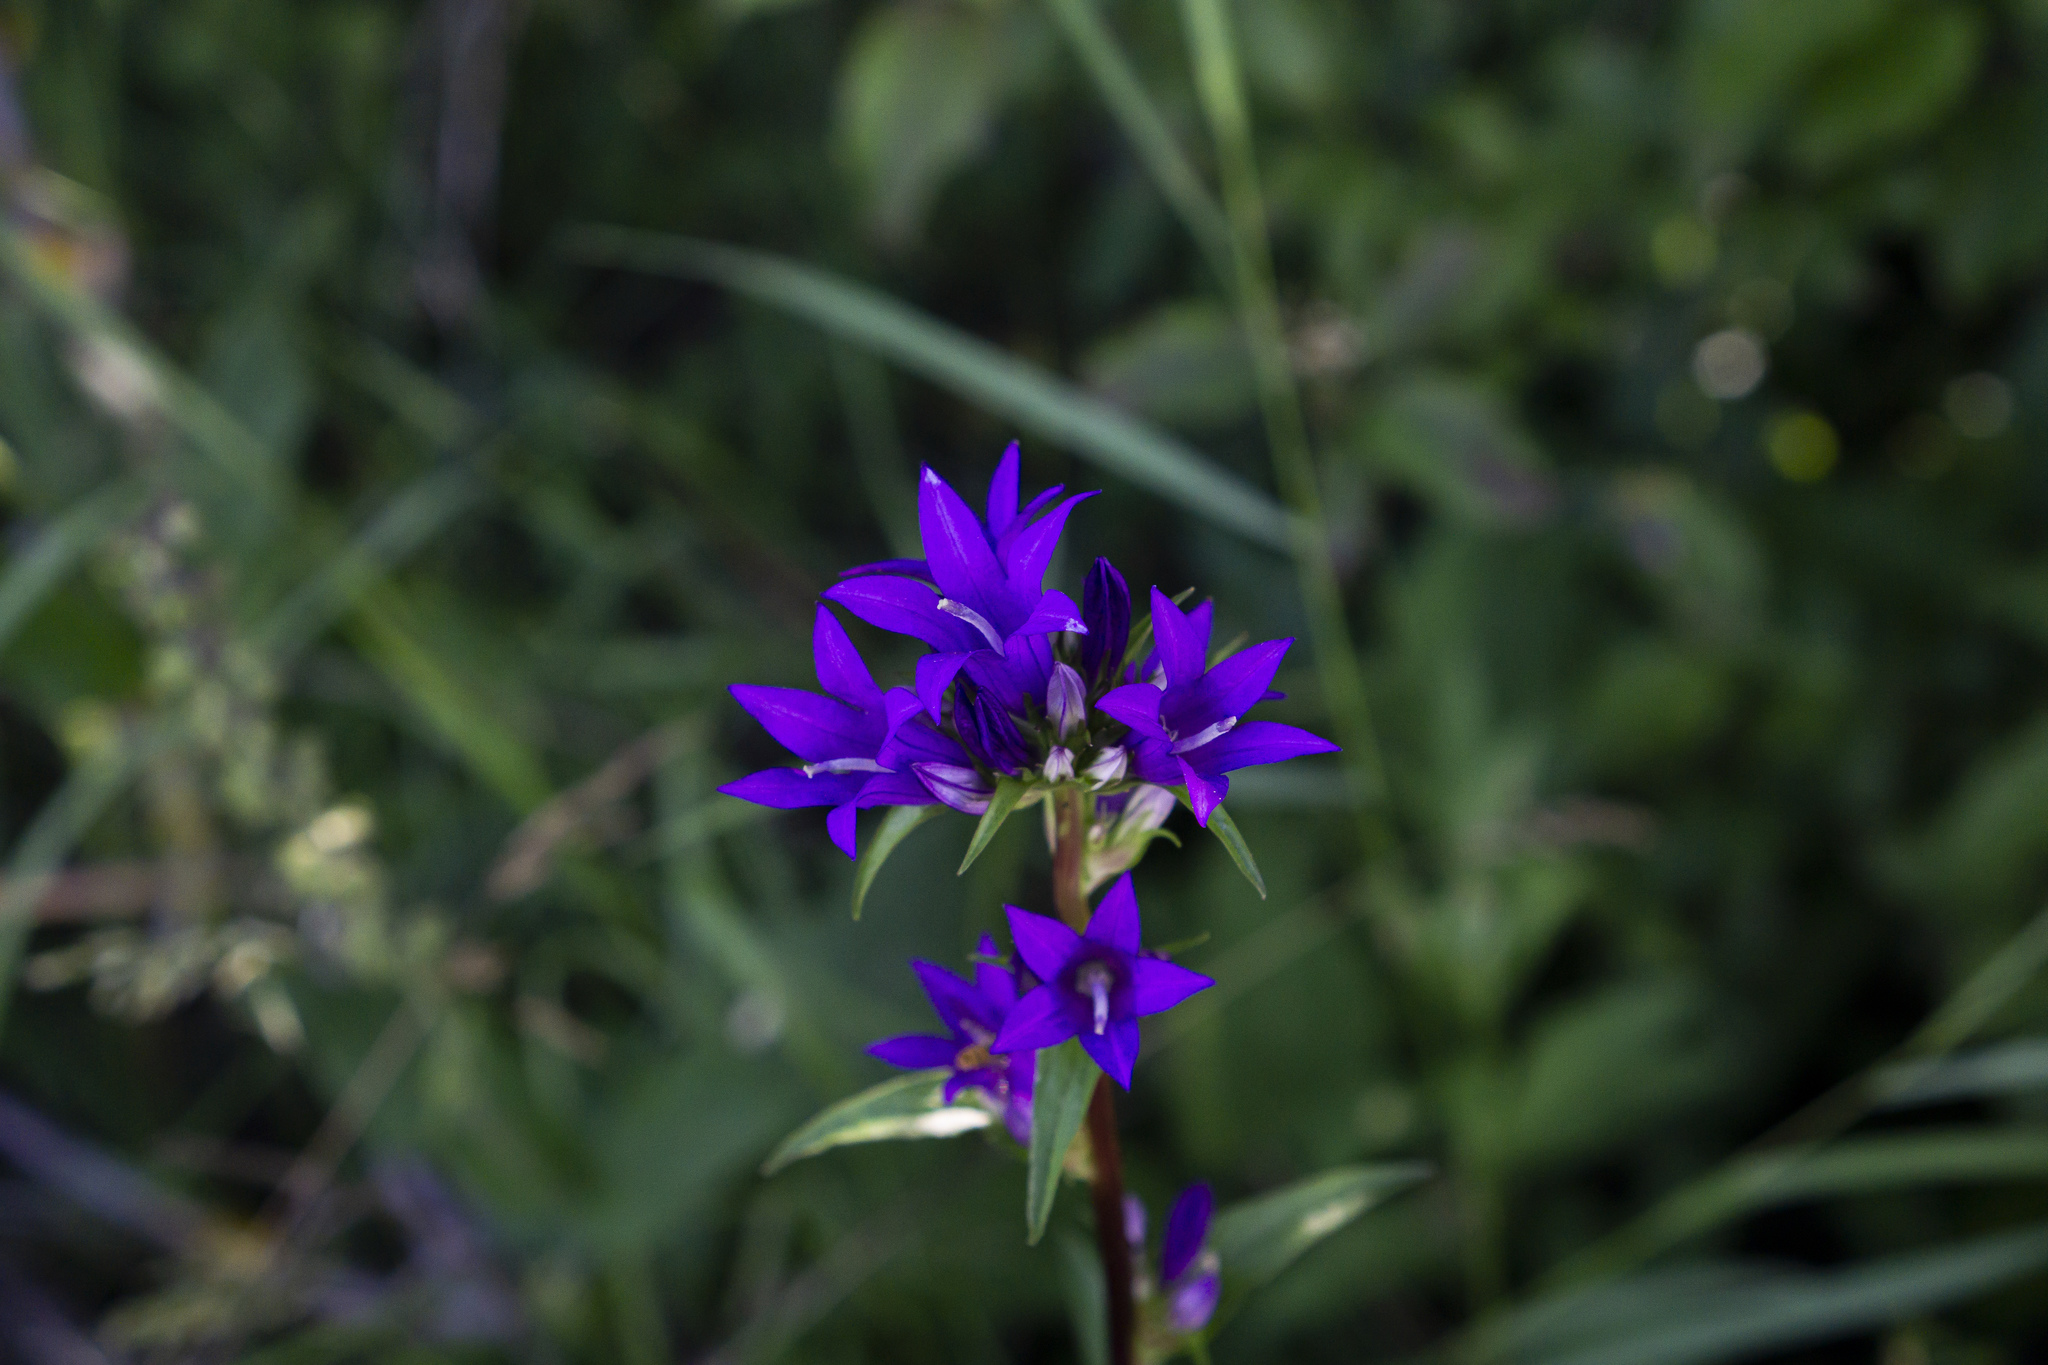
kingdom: Plantae
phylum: Tracheophyta
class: Magnoliopsida
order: Asterales
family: Campanulaceae
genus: Campanula
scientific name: Campanula glomerata
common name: Clustered bellflower
